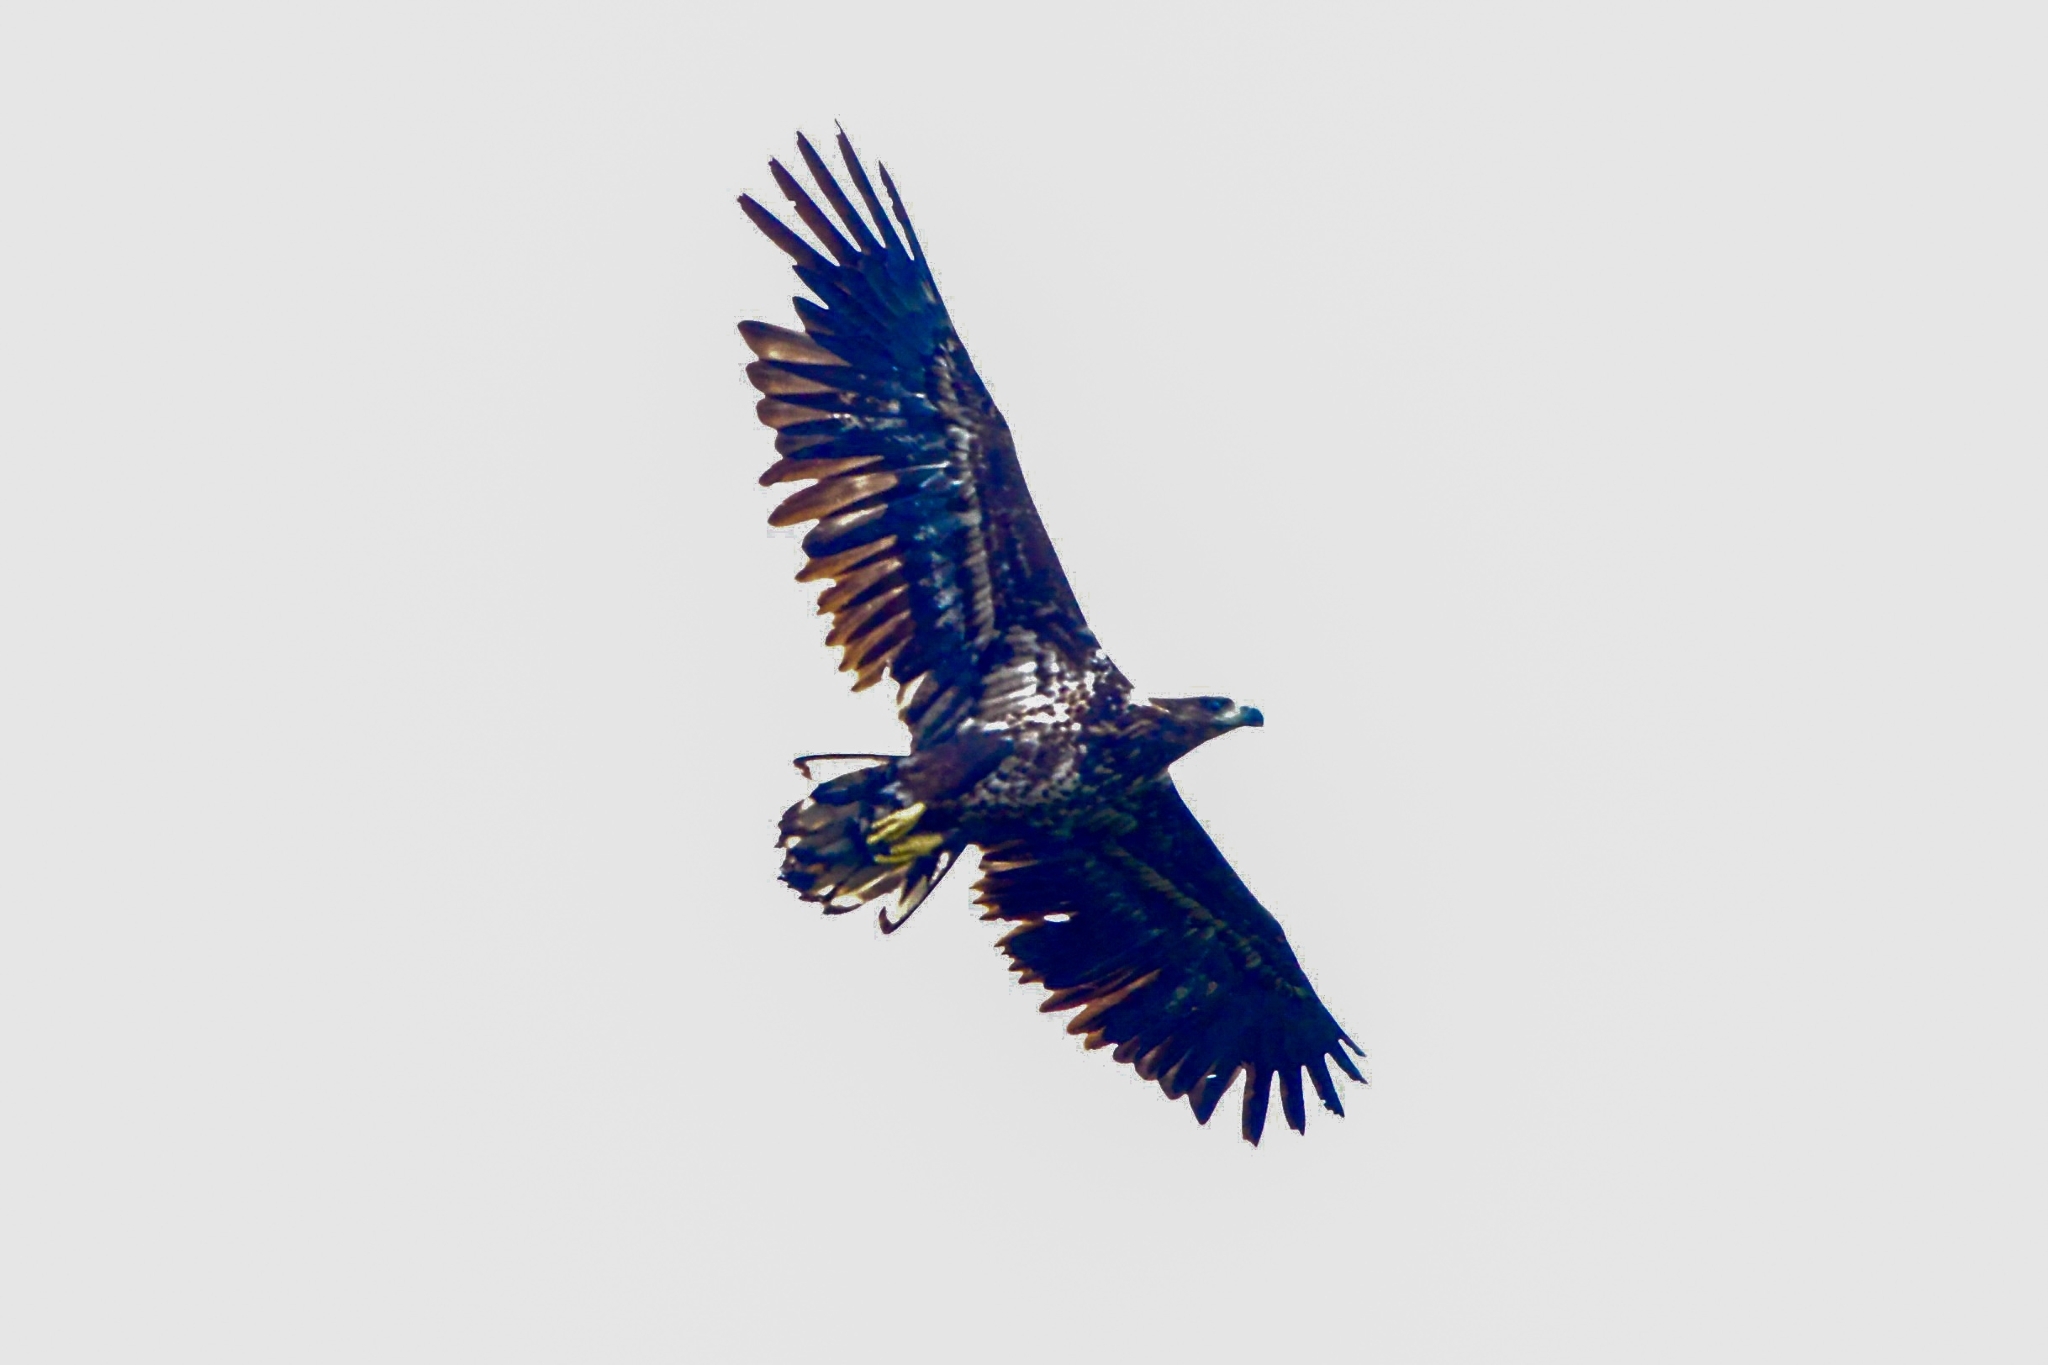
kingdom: Animalia
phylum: Chordata
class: Aves
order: Accipitriformes
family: Accipitridae
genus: Haliaeetus
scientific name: Haliaeetus albicilla
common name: White-tailed eagle
